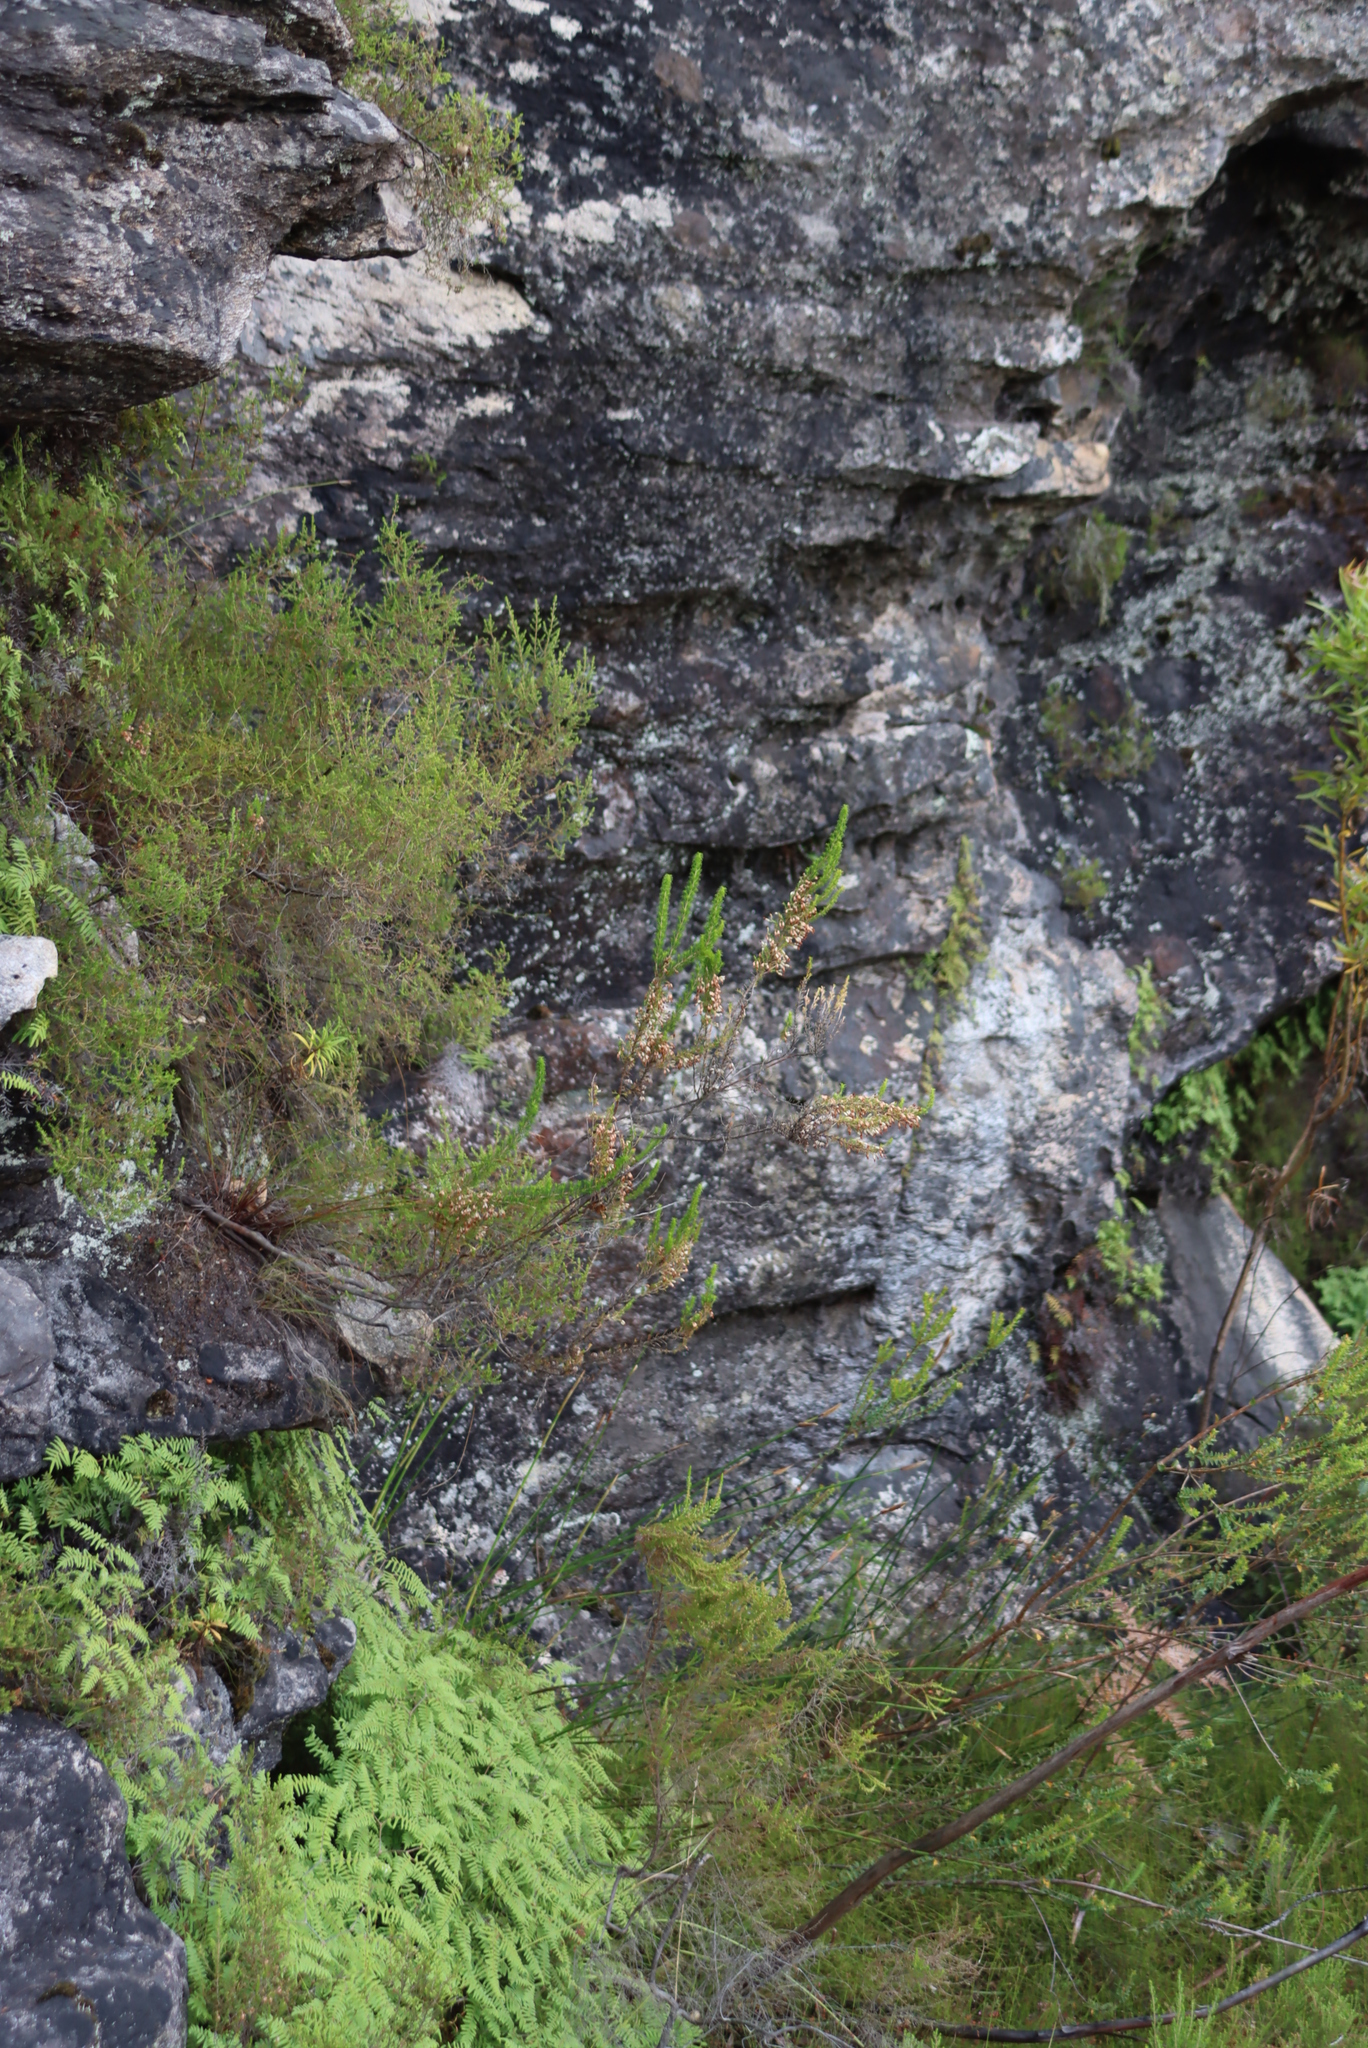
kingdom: Plantae
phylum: Tracheophyta
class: Magnoliopsida
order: Ericales
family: Ericaceae
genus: Erica
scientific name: Erica penicilliformis
